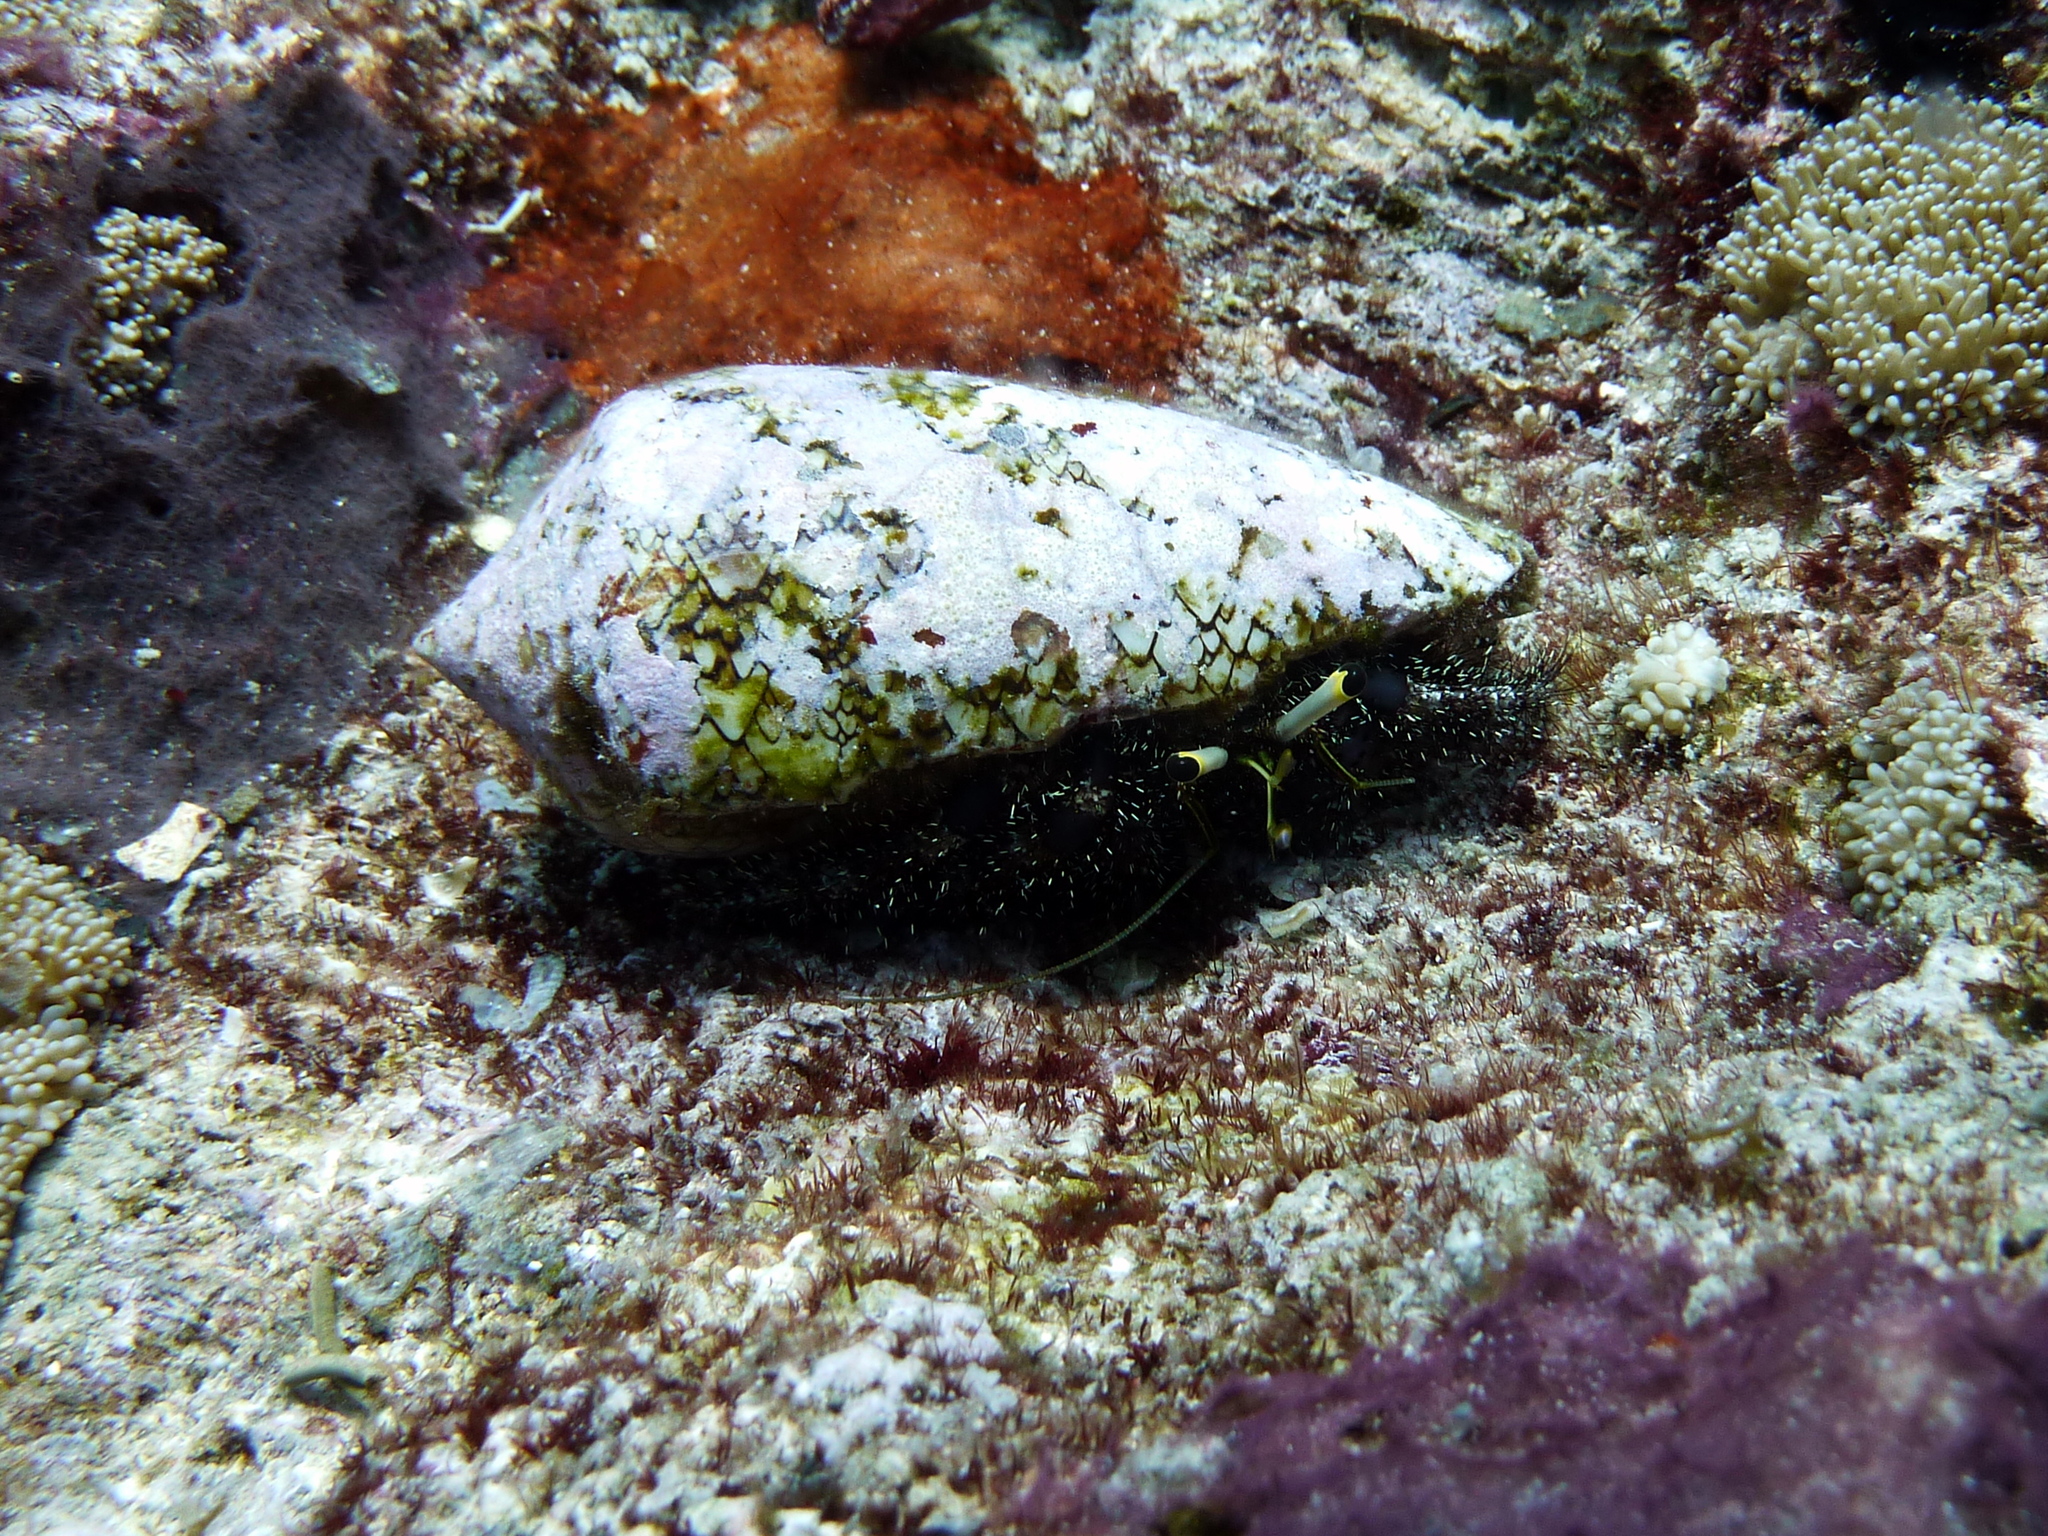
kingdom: Animalia
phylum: Arthropoda
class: Malacostraca
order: Decapoda
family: Diogenidae
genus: Dardanus
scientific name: Dardanus lagopodes
